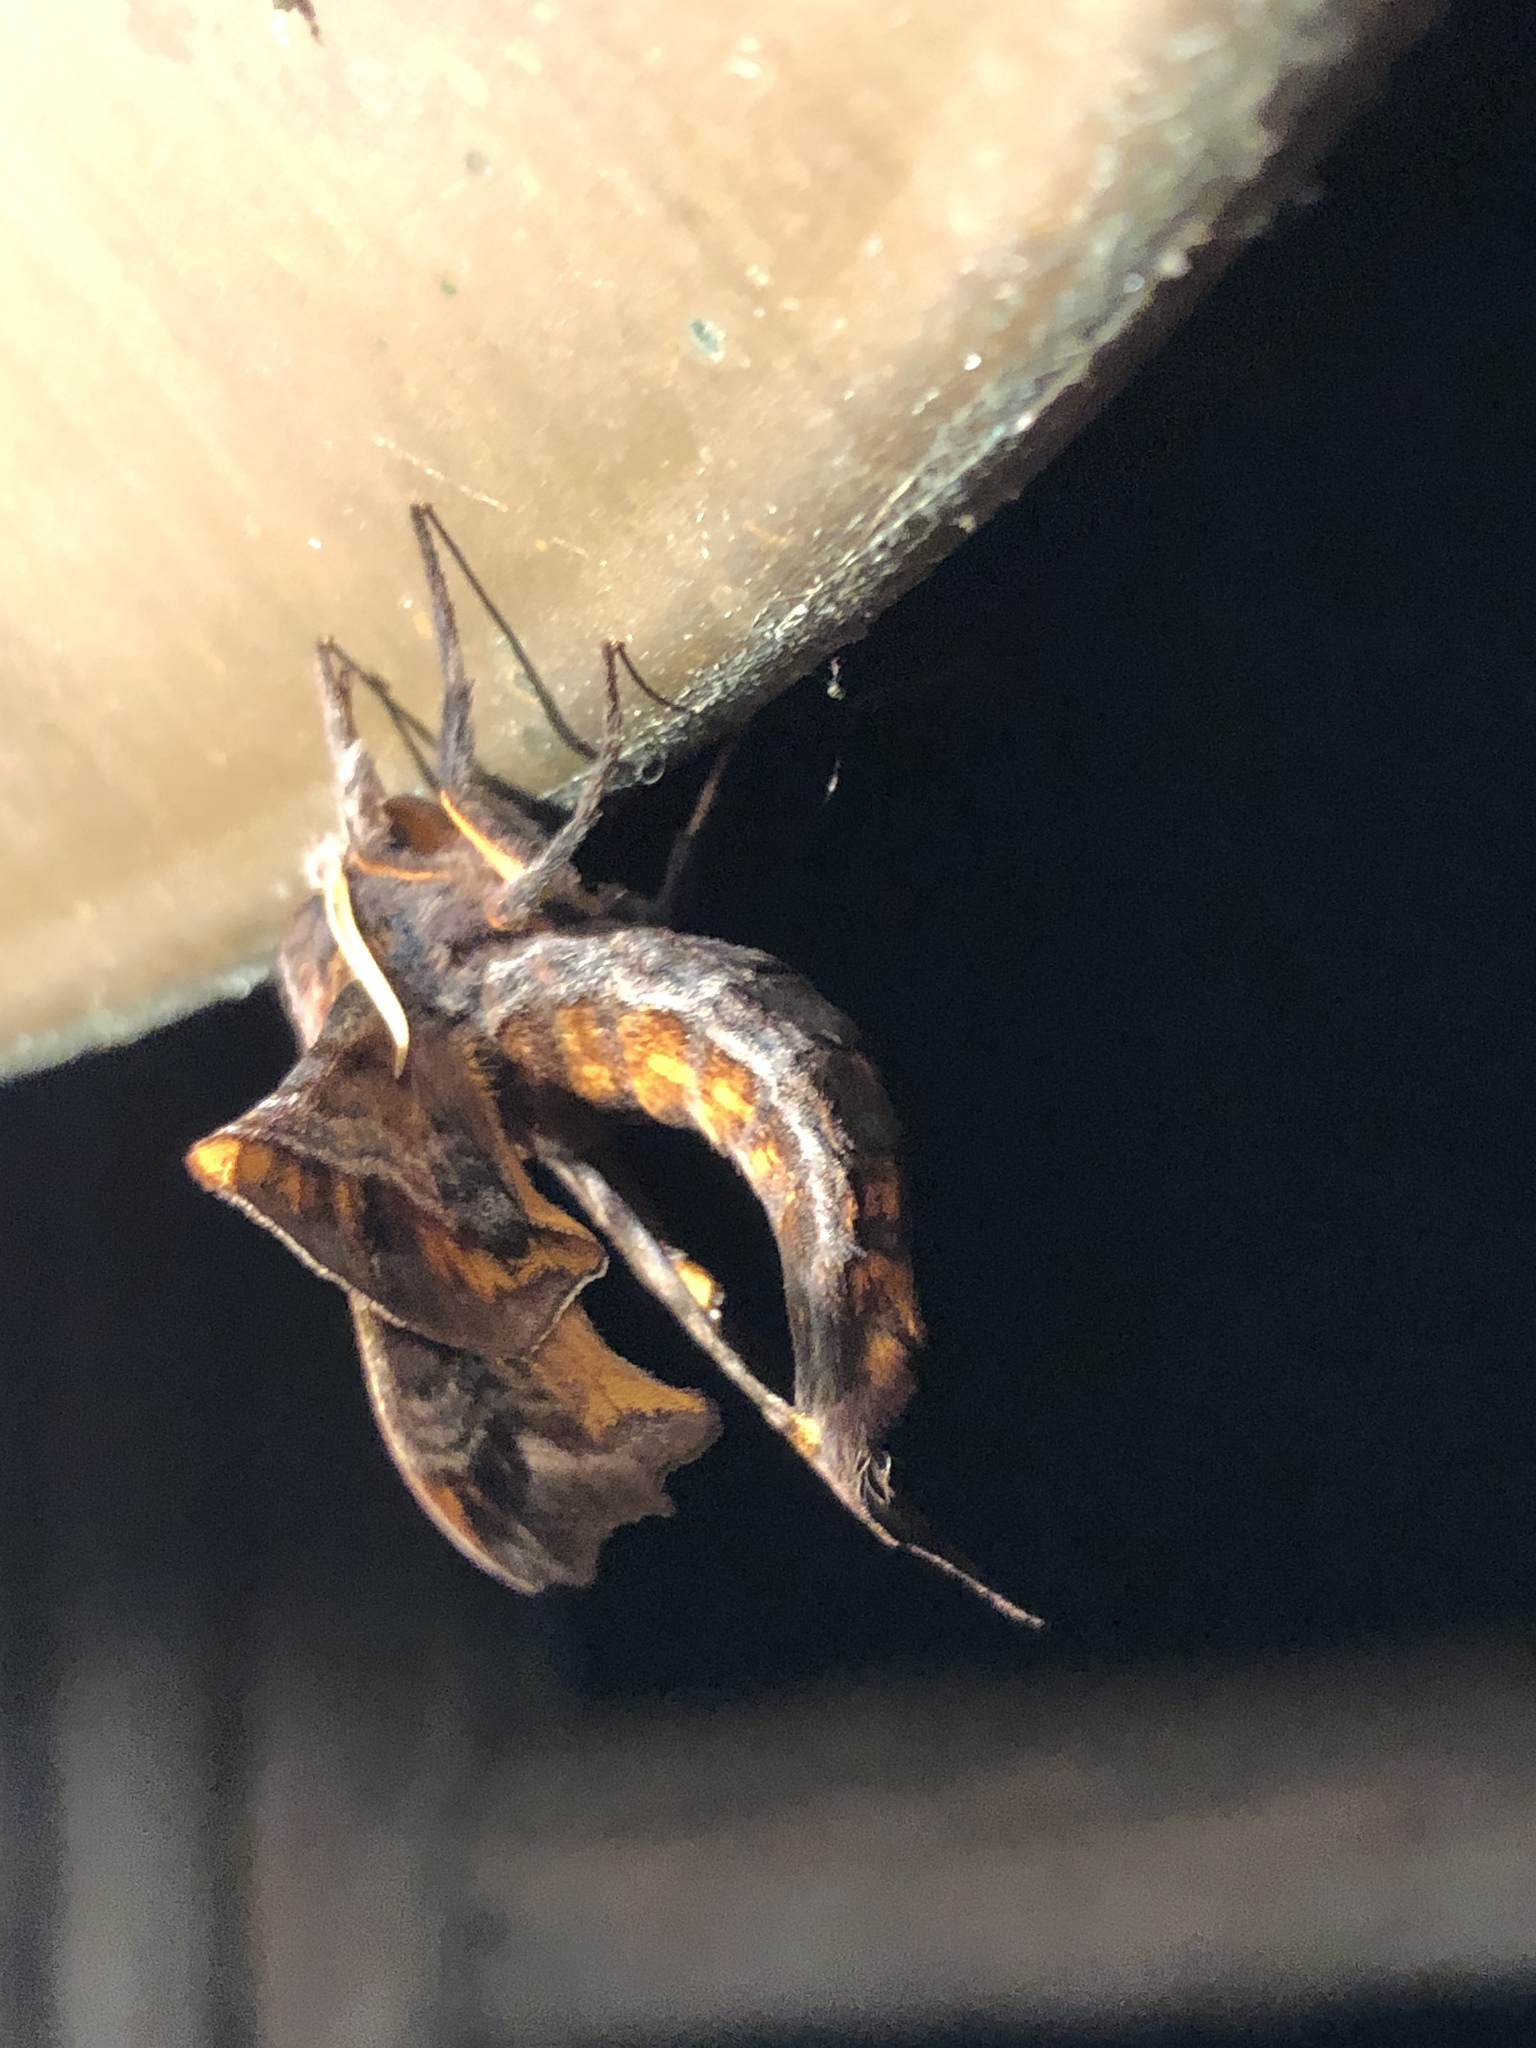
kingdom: Animalia
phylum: Arthropoda
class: Insecta
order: Lepidoptera
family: Sphingidae
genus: Paonias
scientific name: Paonias myops
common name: Small-eyed sphinx
